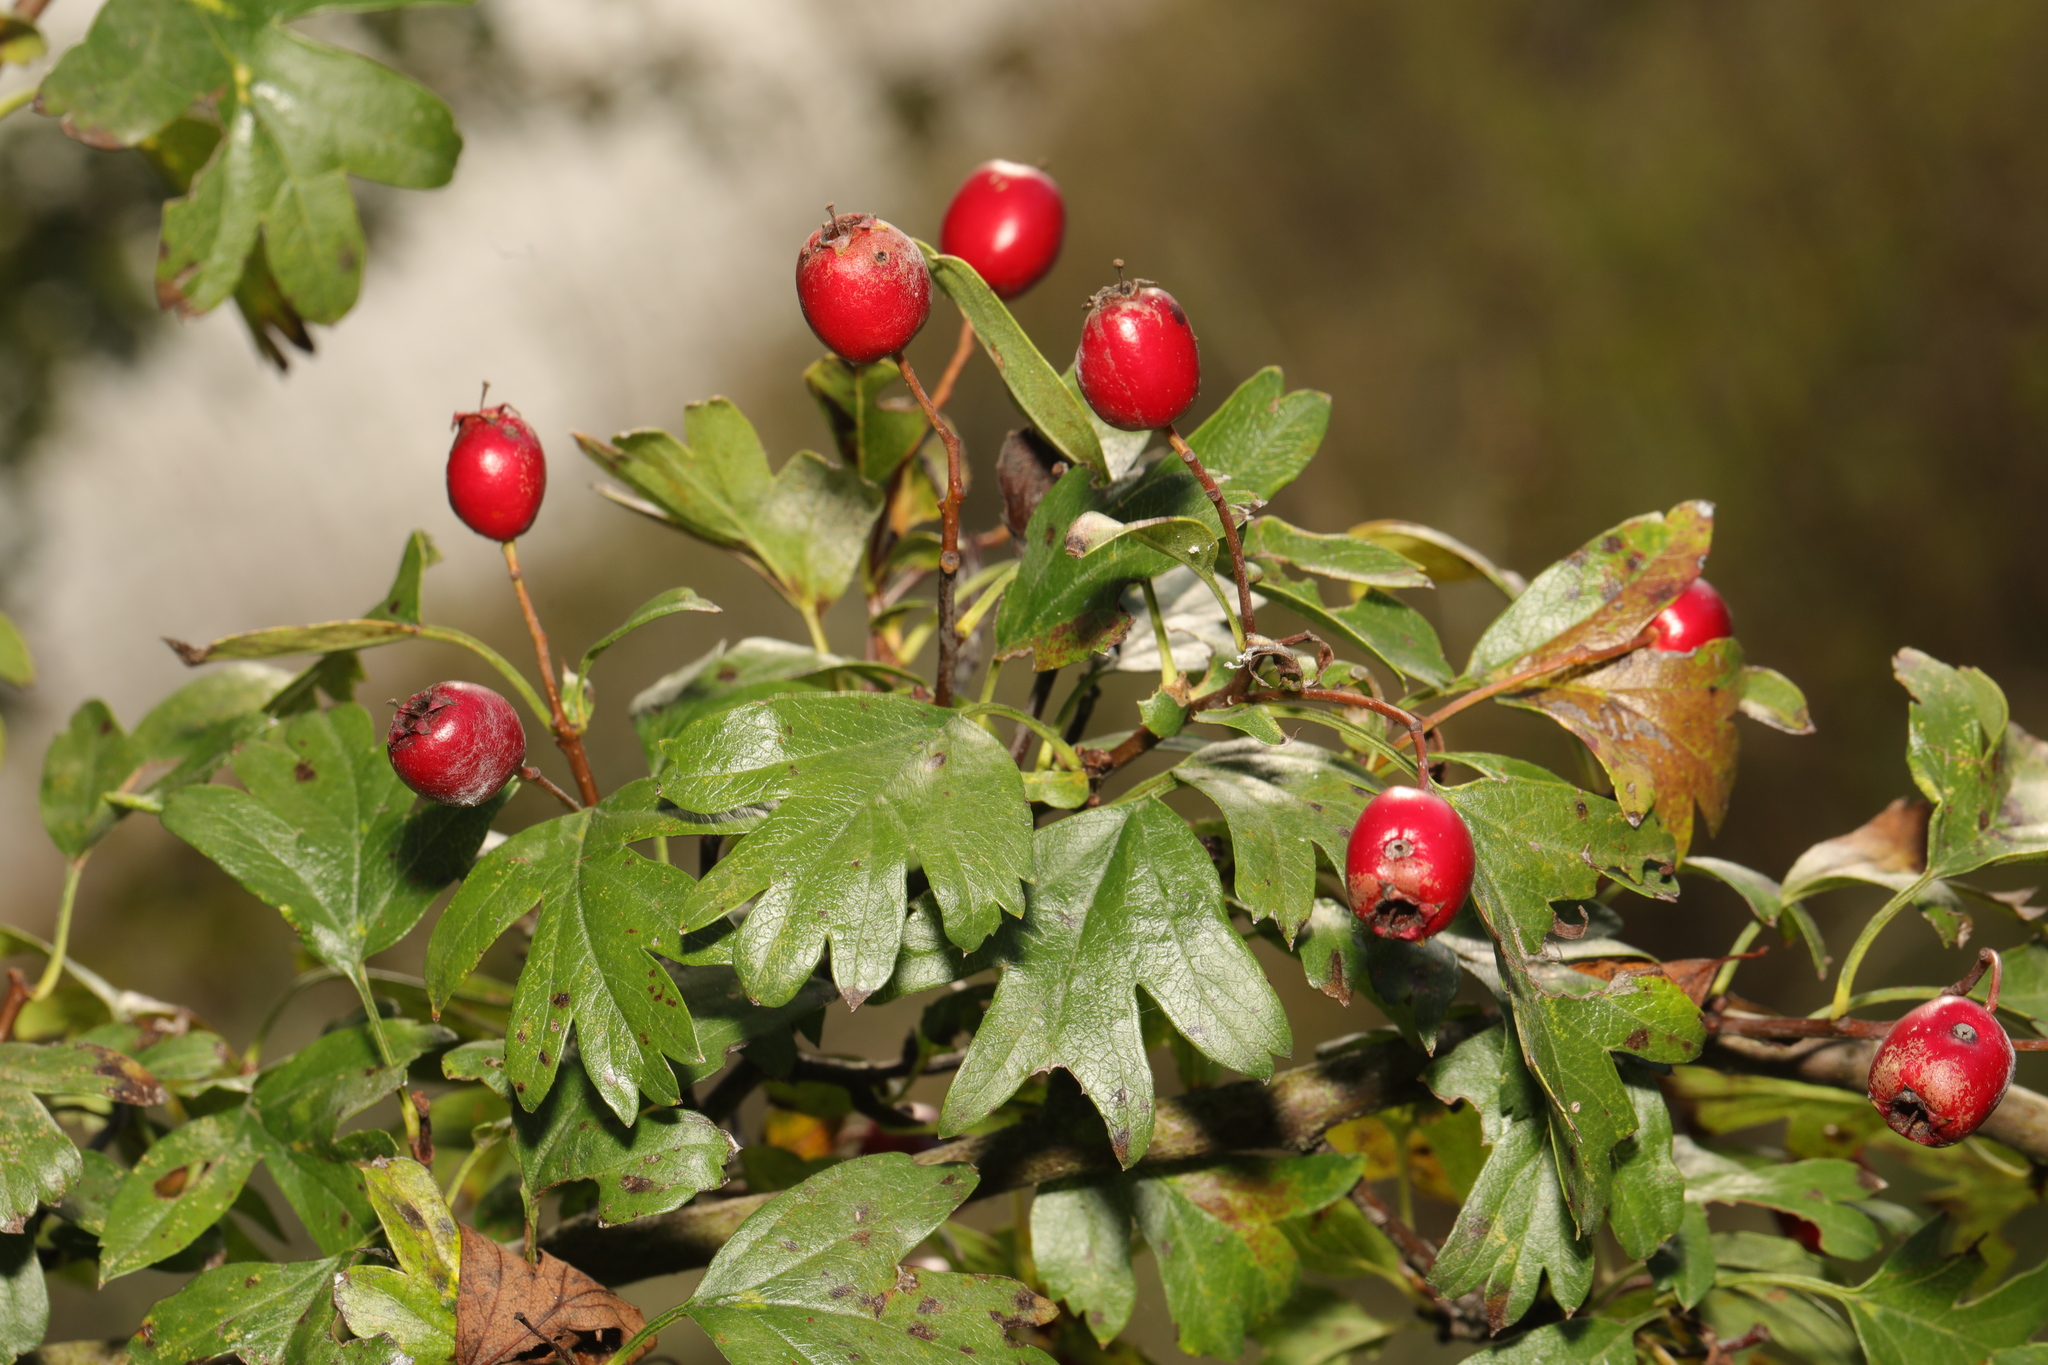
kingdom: Plantae
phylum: Tracheophyta
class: Magnoliopsida
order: Rosales
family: Rosaceae
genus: Crataegus
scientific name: Crataegus monogyna
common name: Hawthorn
